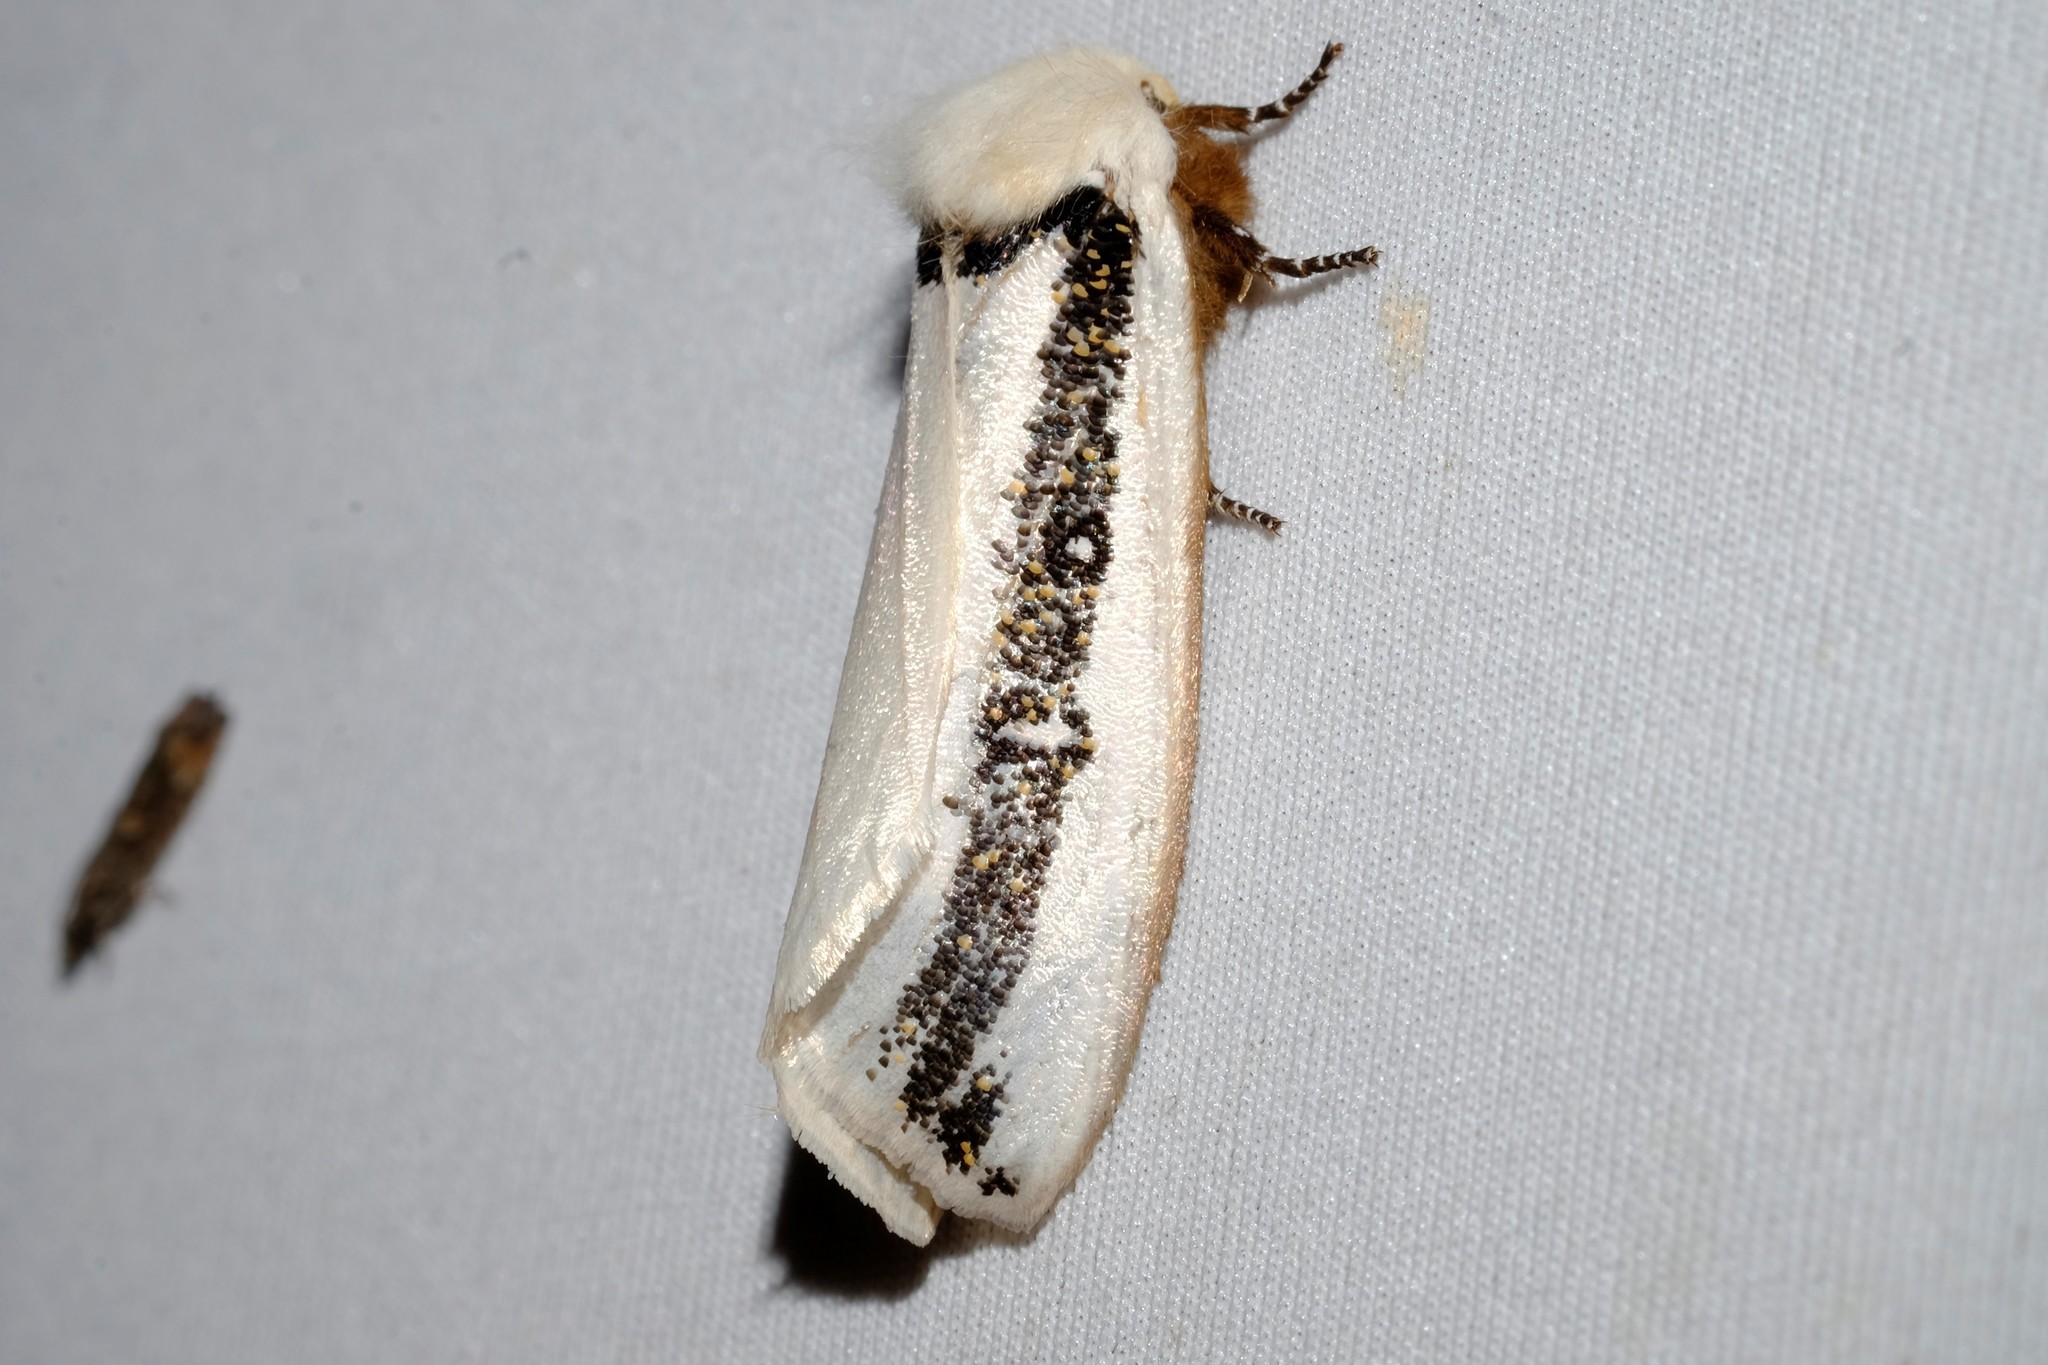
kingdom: Animalia
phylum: Arthropoda
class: Insecta
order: Lepidoptera
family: Oenosandridae
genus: Oenosandra
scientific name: Oenosandra boisduvalii
